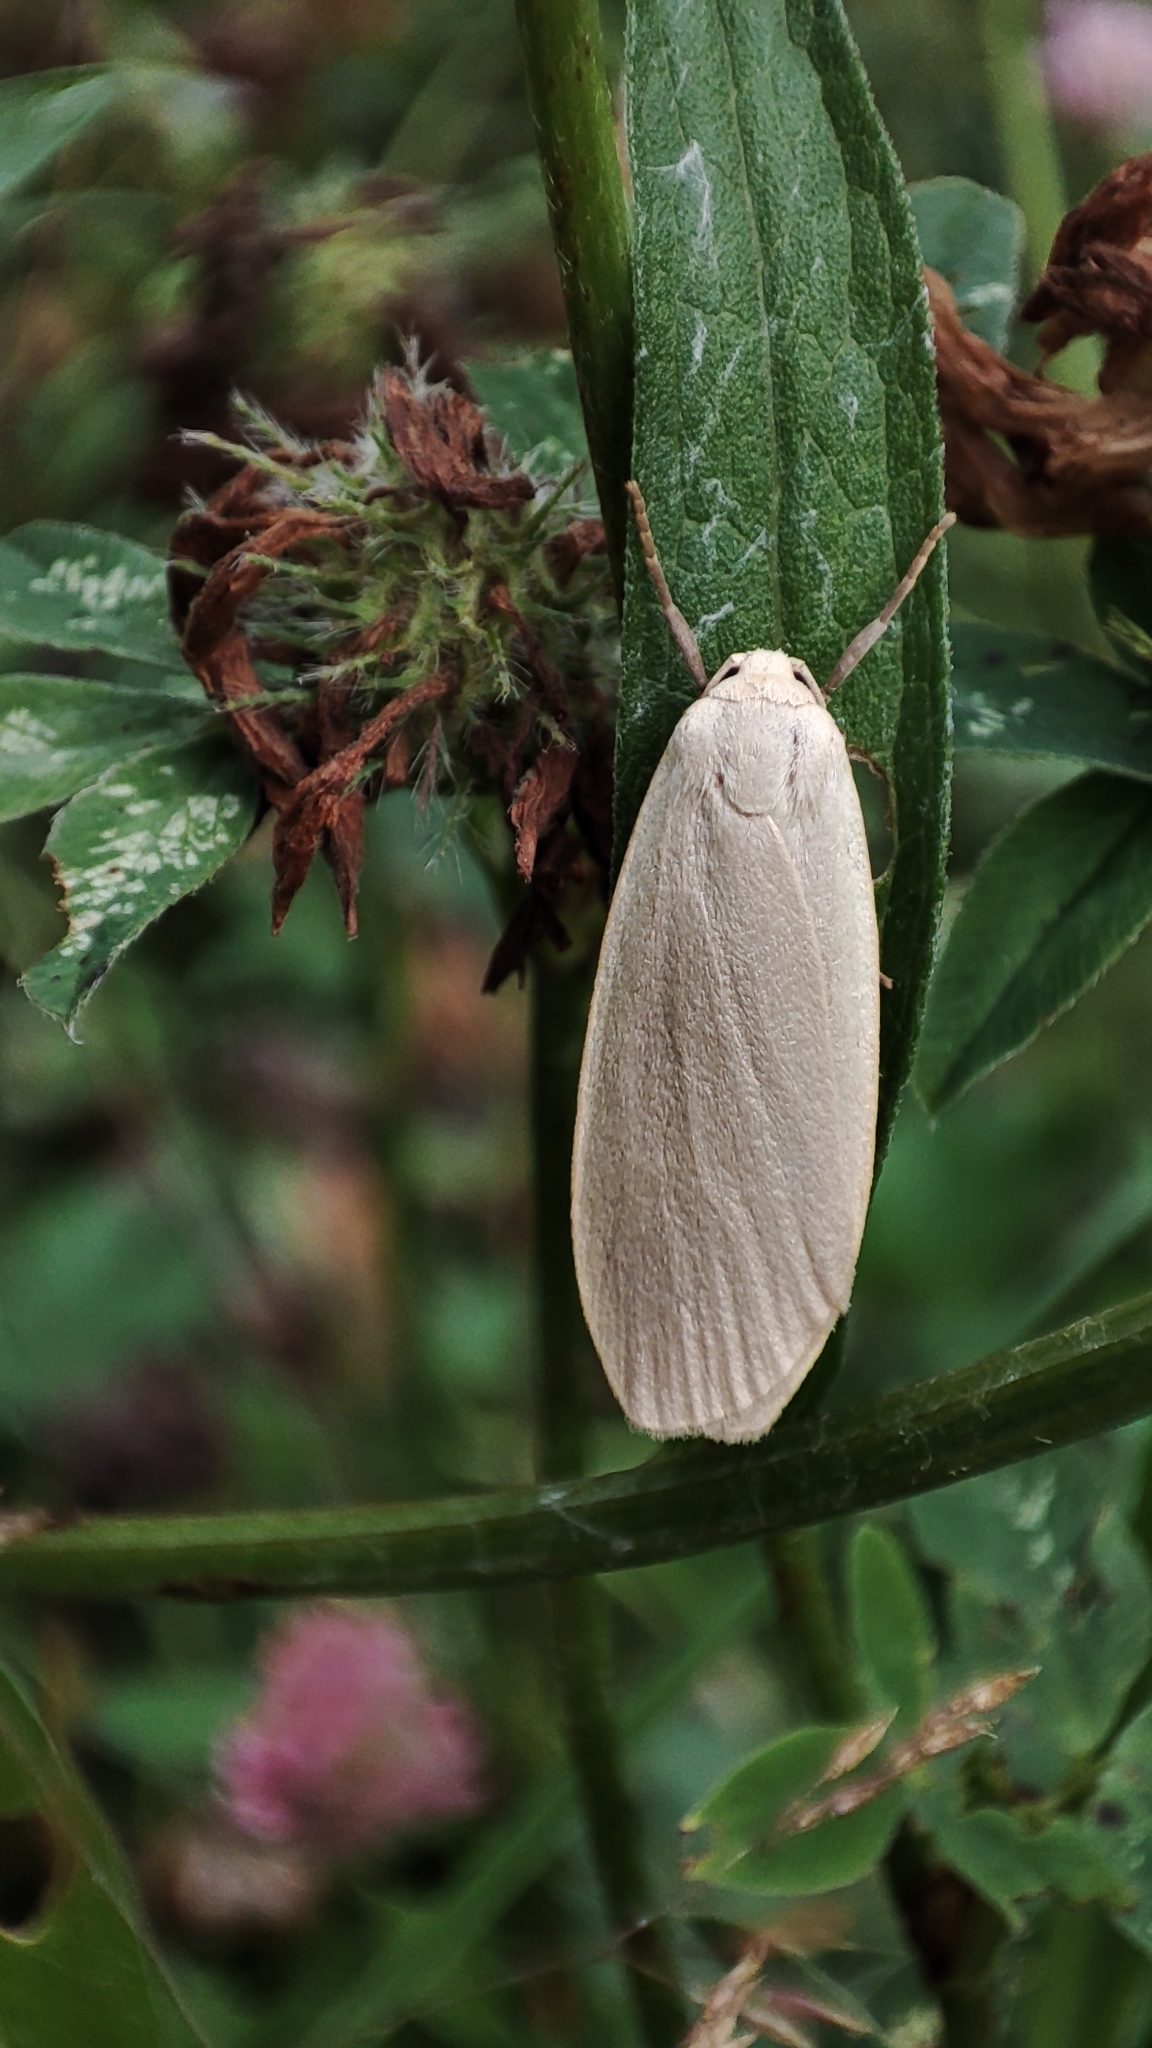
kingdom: Animalia
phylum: Arthropoda
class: Insecta
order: Lepidoptera
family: Erebidae
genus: Collita
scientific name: Collita griseola
